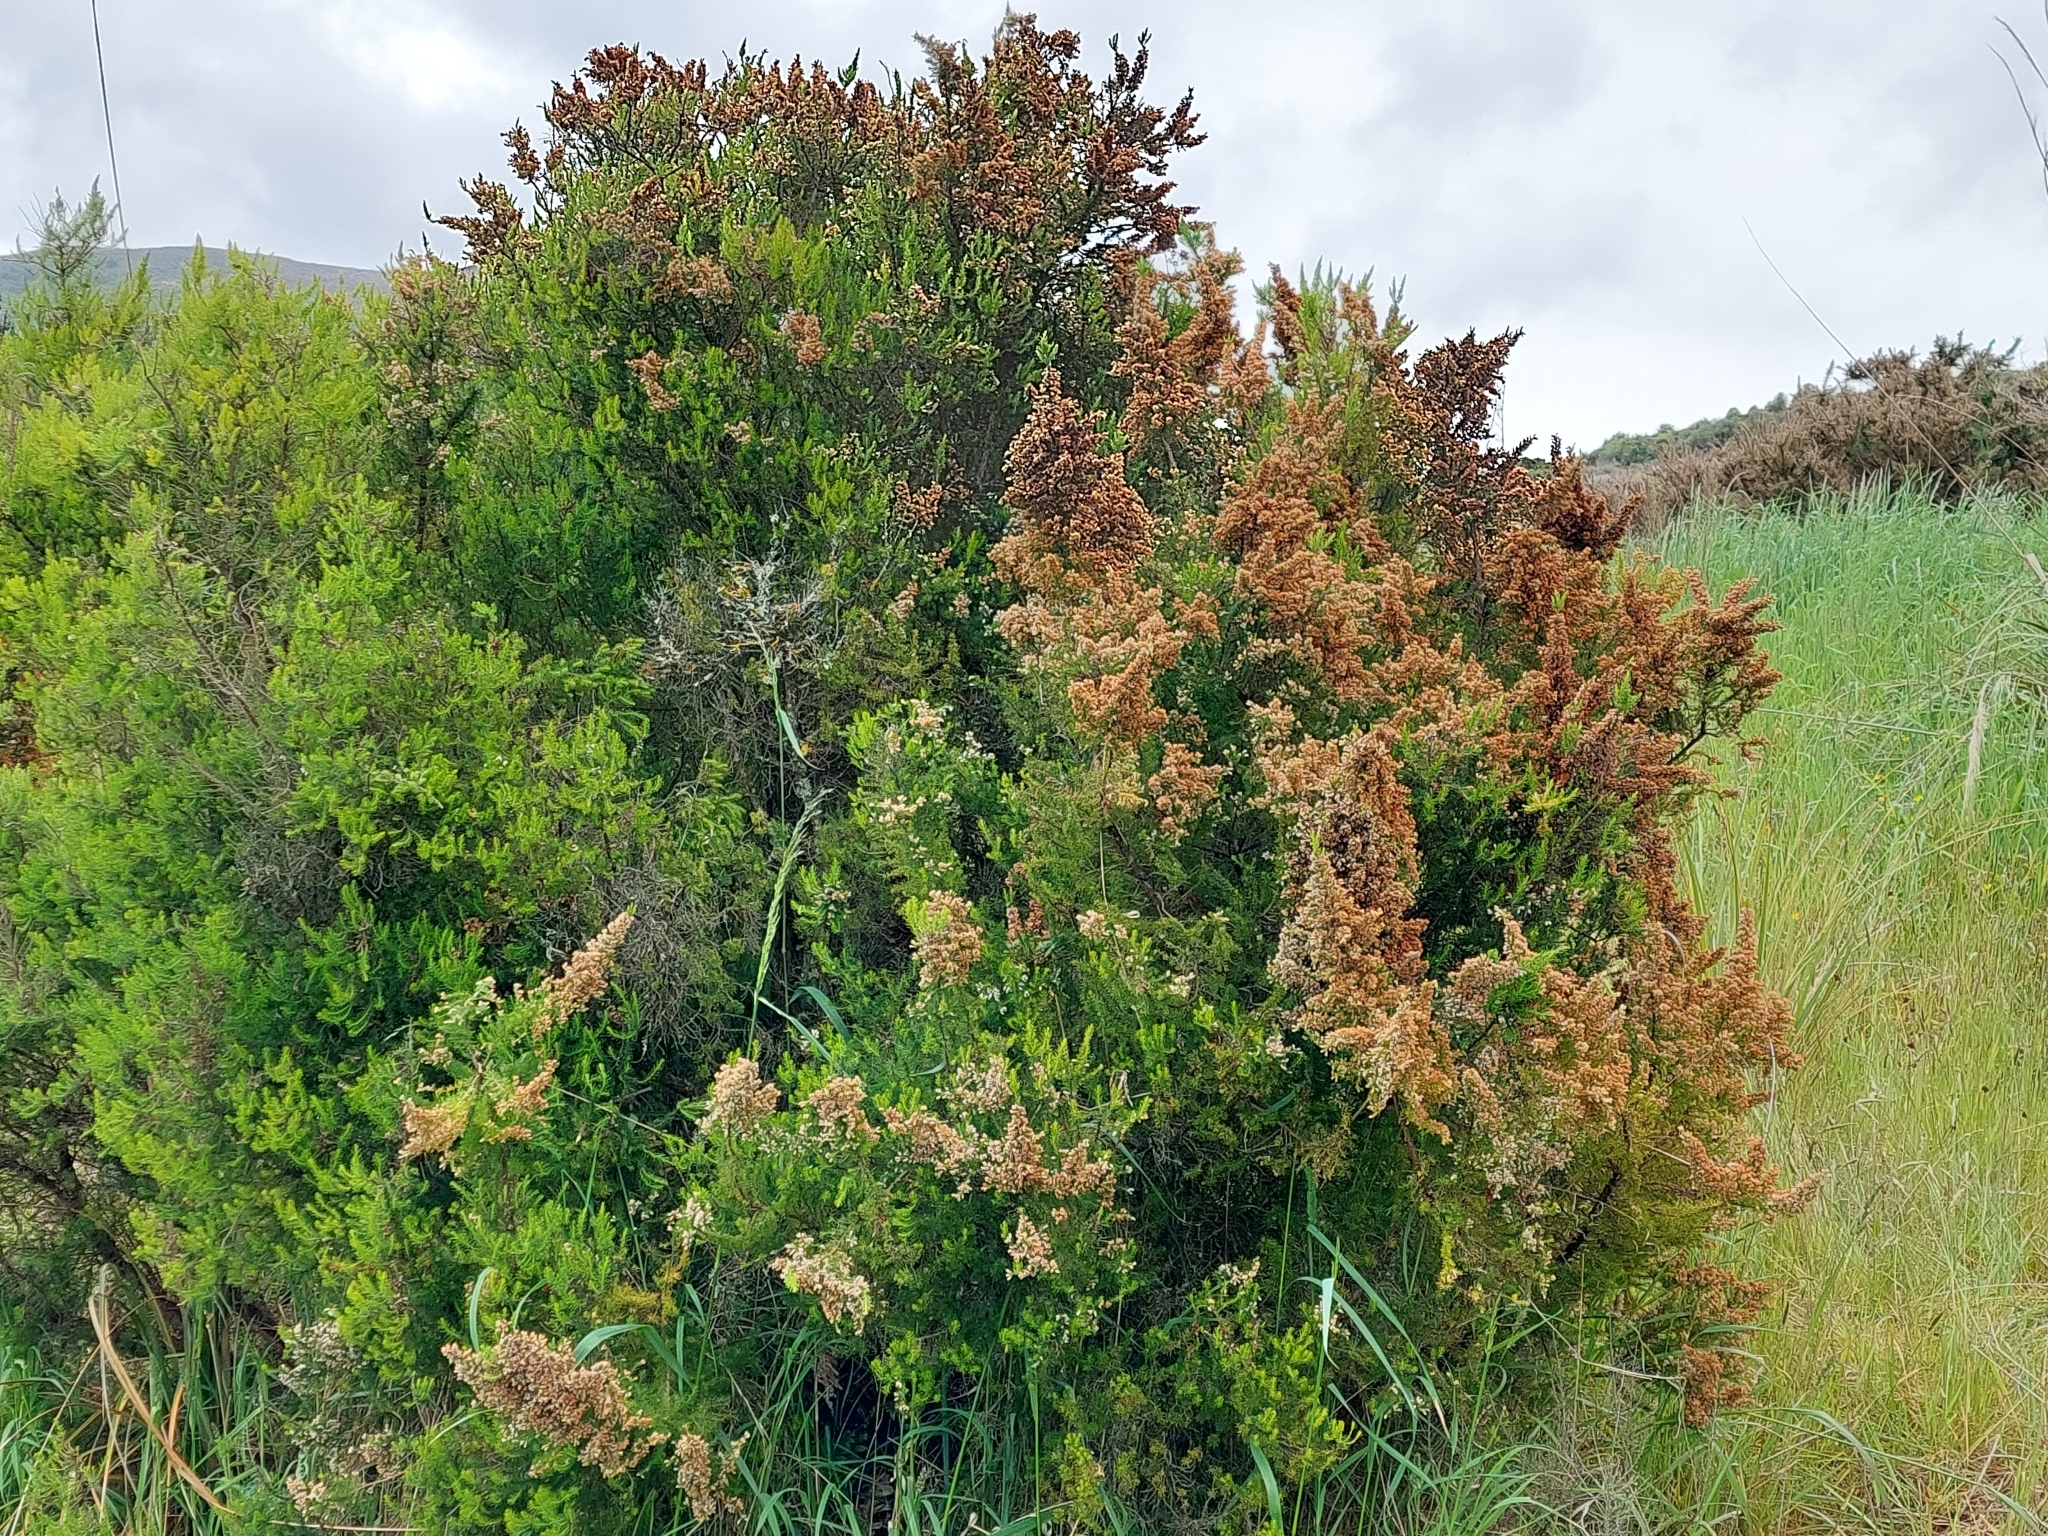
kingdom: Plantae
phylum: Tracheophyta
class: Magnoliopsida
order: Ericales
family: Ericaceae
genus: Erica
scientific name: Erica lusitanica
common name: Spanish heath
